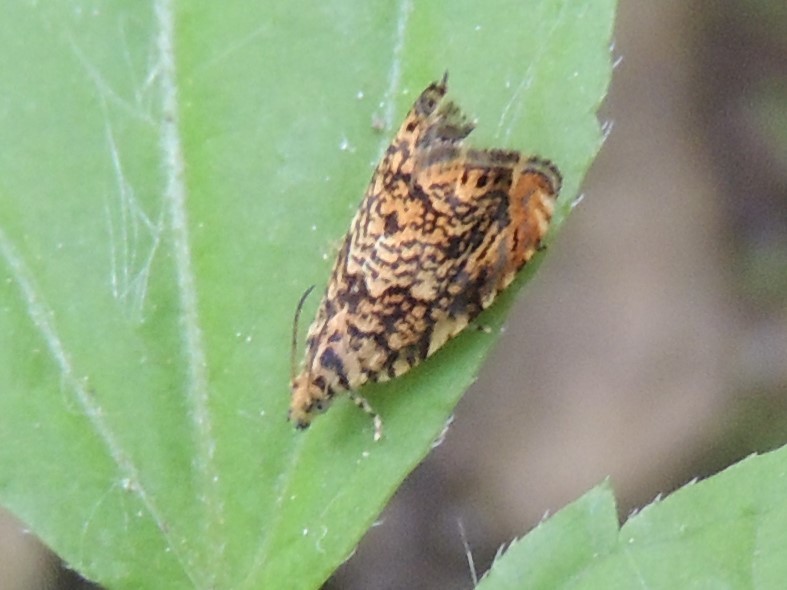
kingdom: Animalia
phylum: Arthropoda
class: Insecta
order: Lepidoptera
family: Tortricidae
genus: Dichrorampha
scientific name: Dichrorampha leopardana
